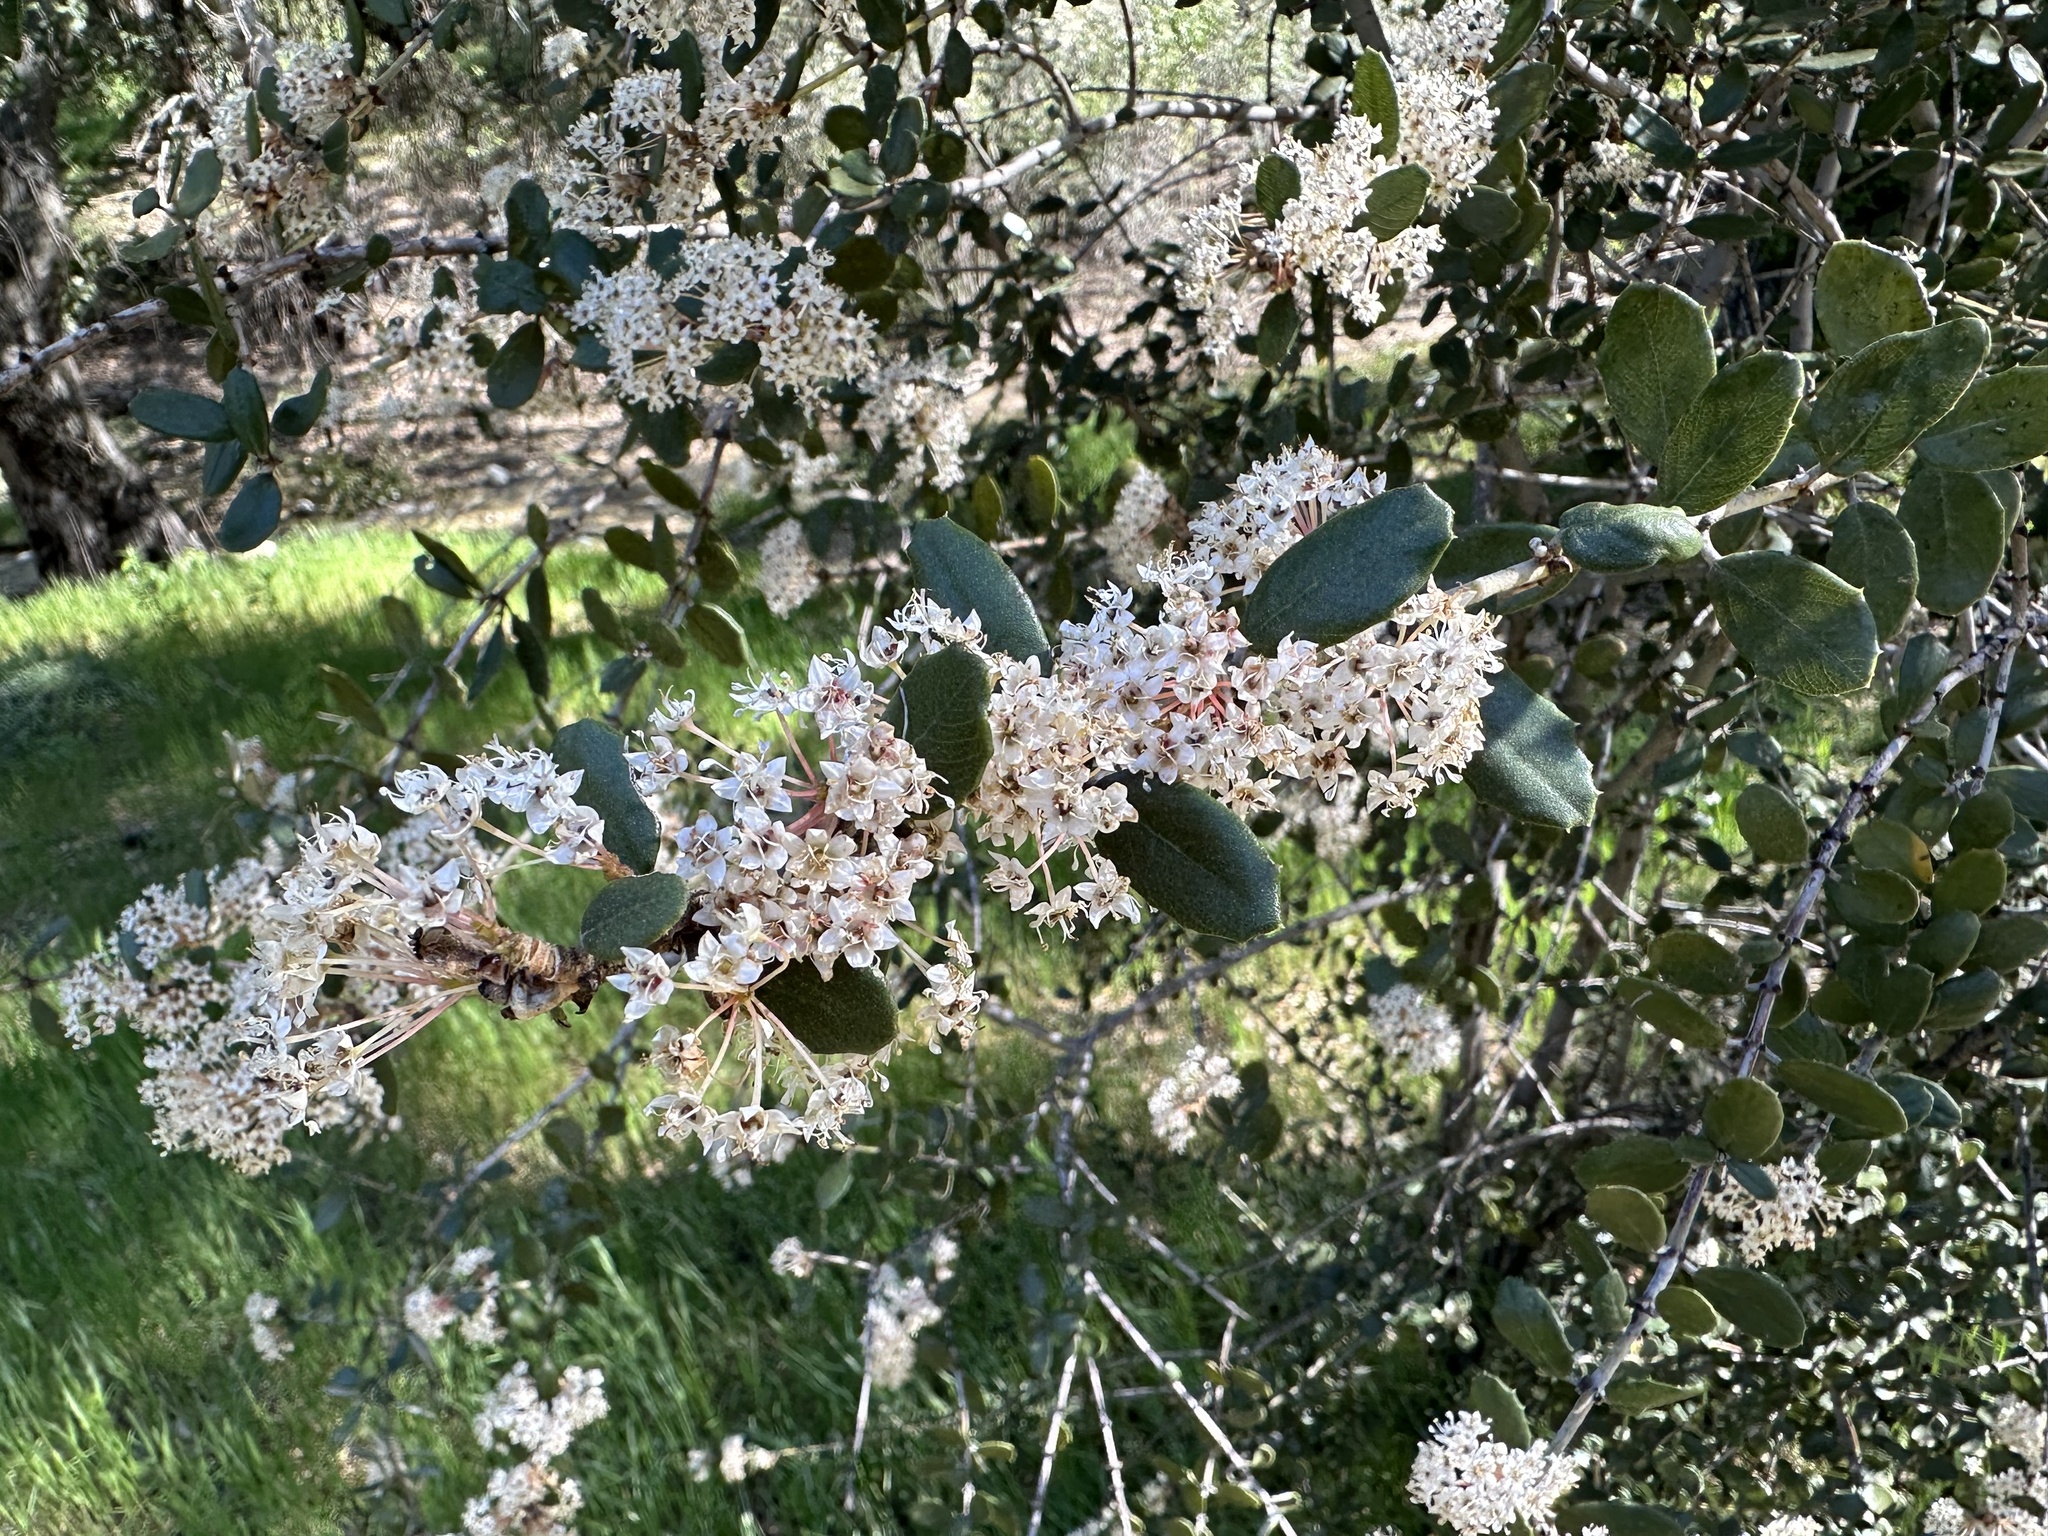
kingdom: Plantae
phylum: Tracheophyta
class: Magnoliopsida
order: Rosales
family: Rhamnaceae
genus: Ceanothus
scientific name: Ceanothus crassifolius
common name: Hoaryleaf ceanothus
